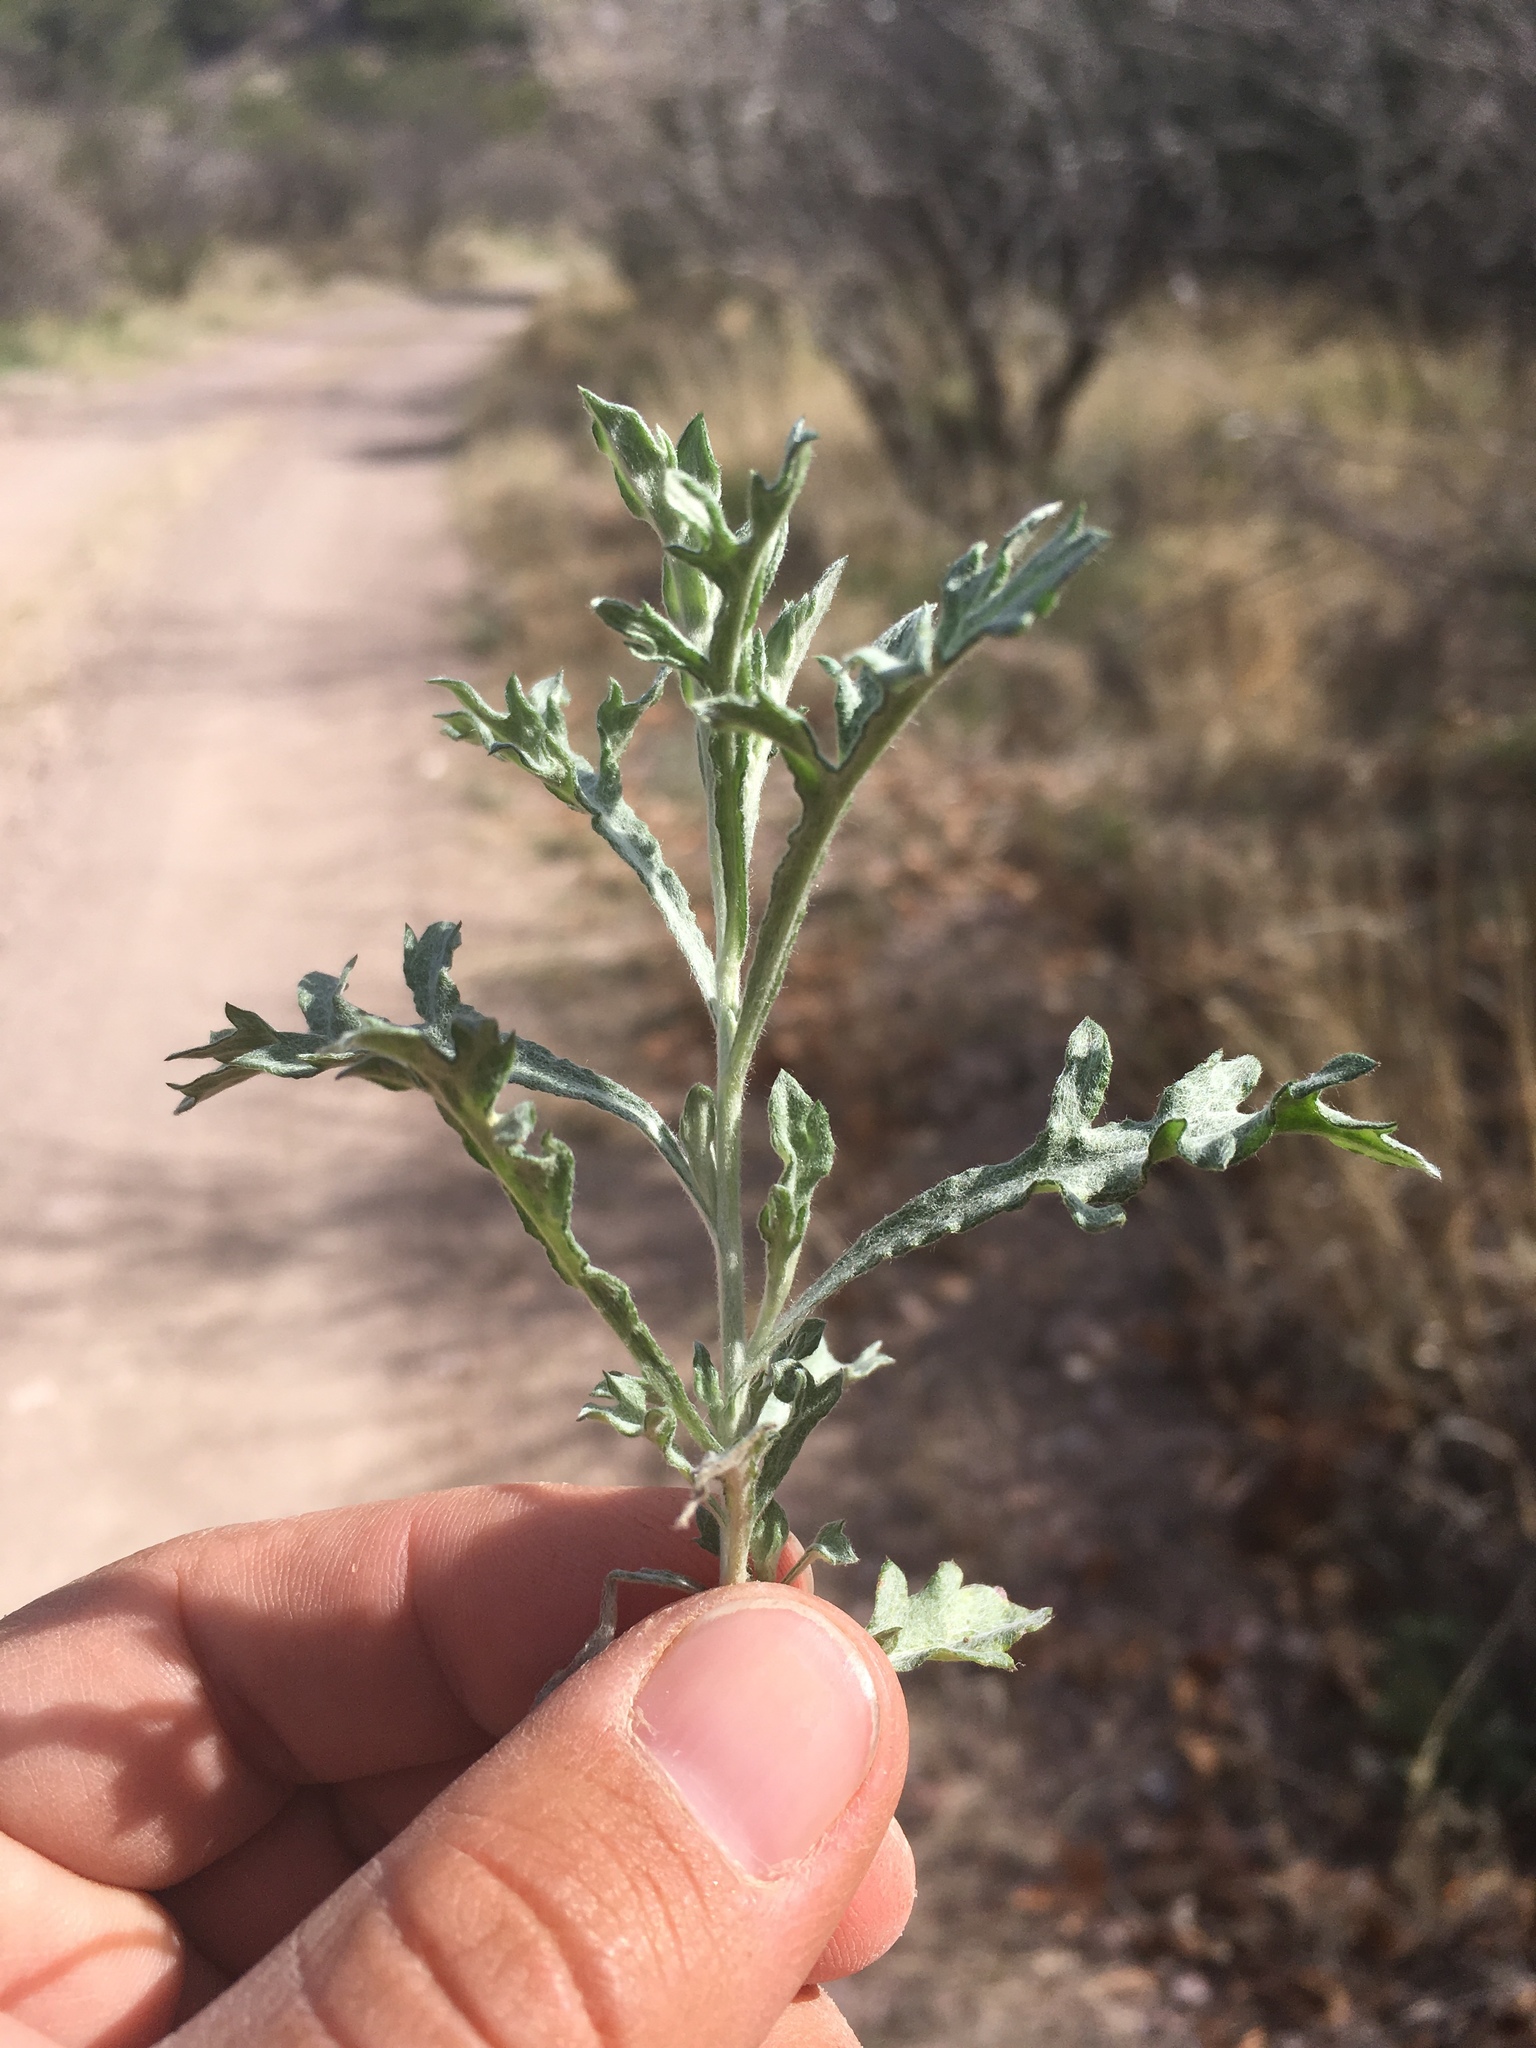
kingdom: Plantae
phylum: Tracheophyta
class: Magnoliopsida
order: Asterales
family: Asteraceae
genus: Artemisia
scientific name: Artemisia ludoviciana
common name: Western mugwort
